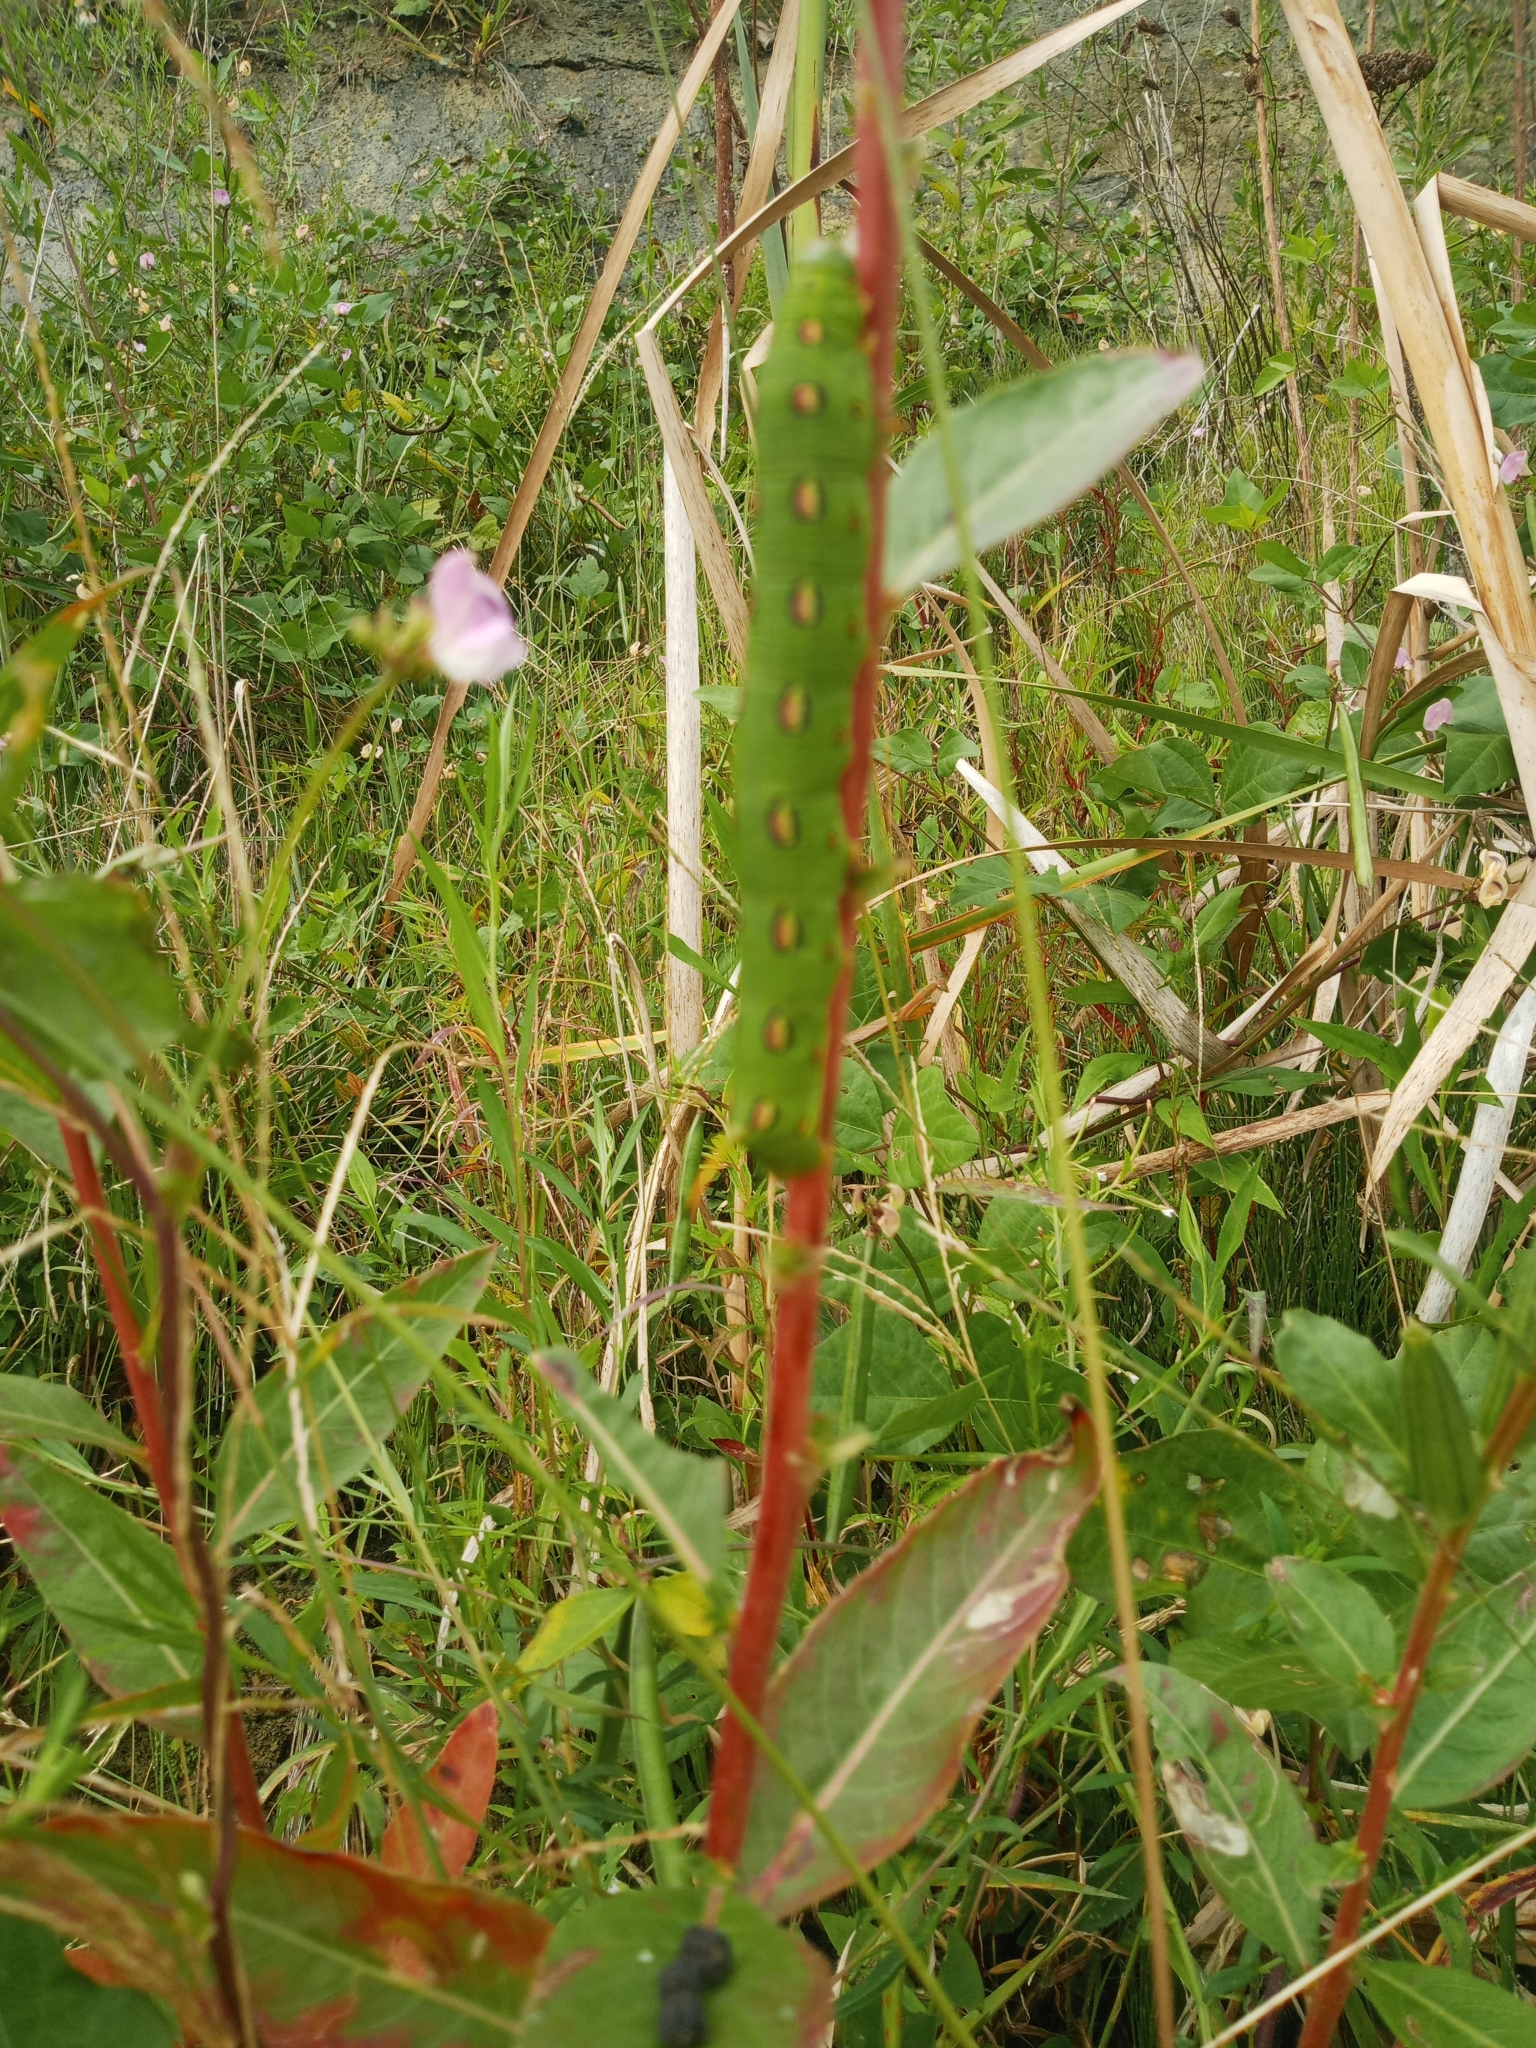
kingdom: Animalia
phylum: Arthropoda
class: Insecta
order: Lepidoptera
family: Sphingidae
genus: Hyles
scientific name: Hyles lineata
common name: White-lined sphinx
